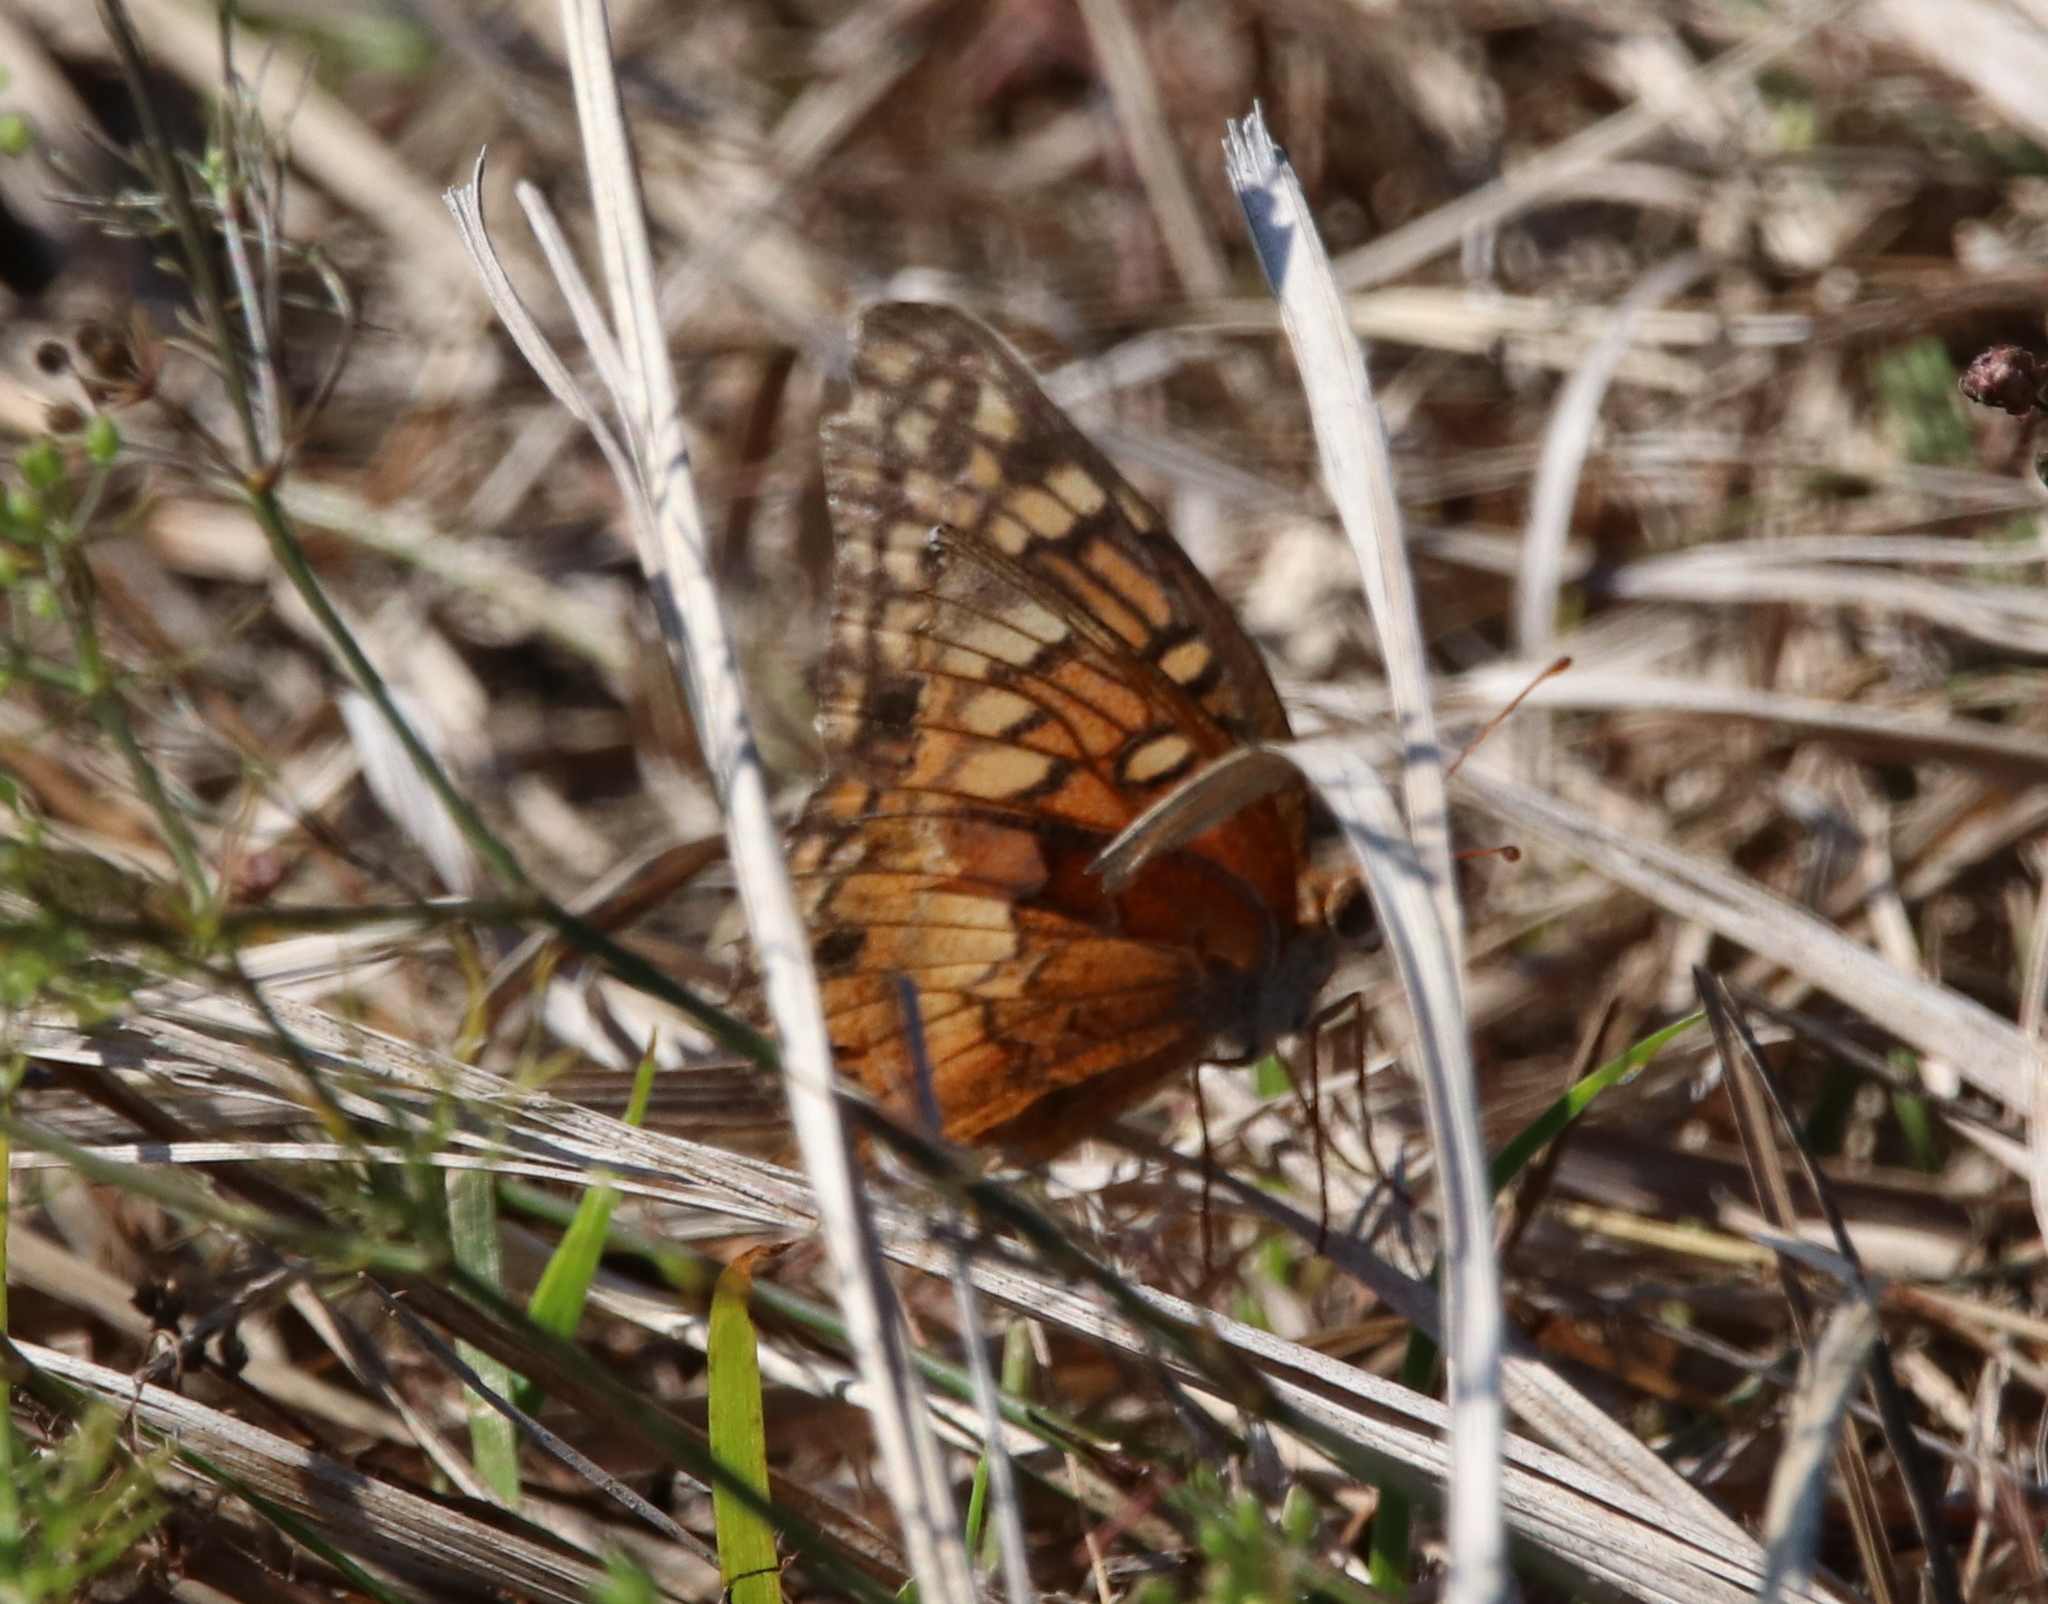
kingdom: Animalia
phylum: Arthropoda
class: Insecta
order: Lepidoptera
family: Nymphalidae
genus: Euptoieta
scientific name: Euptoieta claudia
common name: Variegated fritillary
